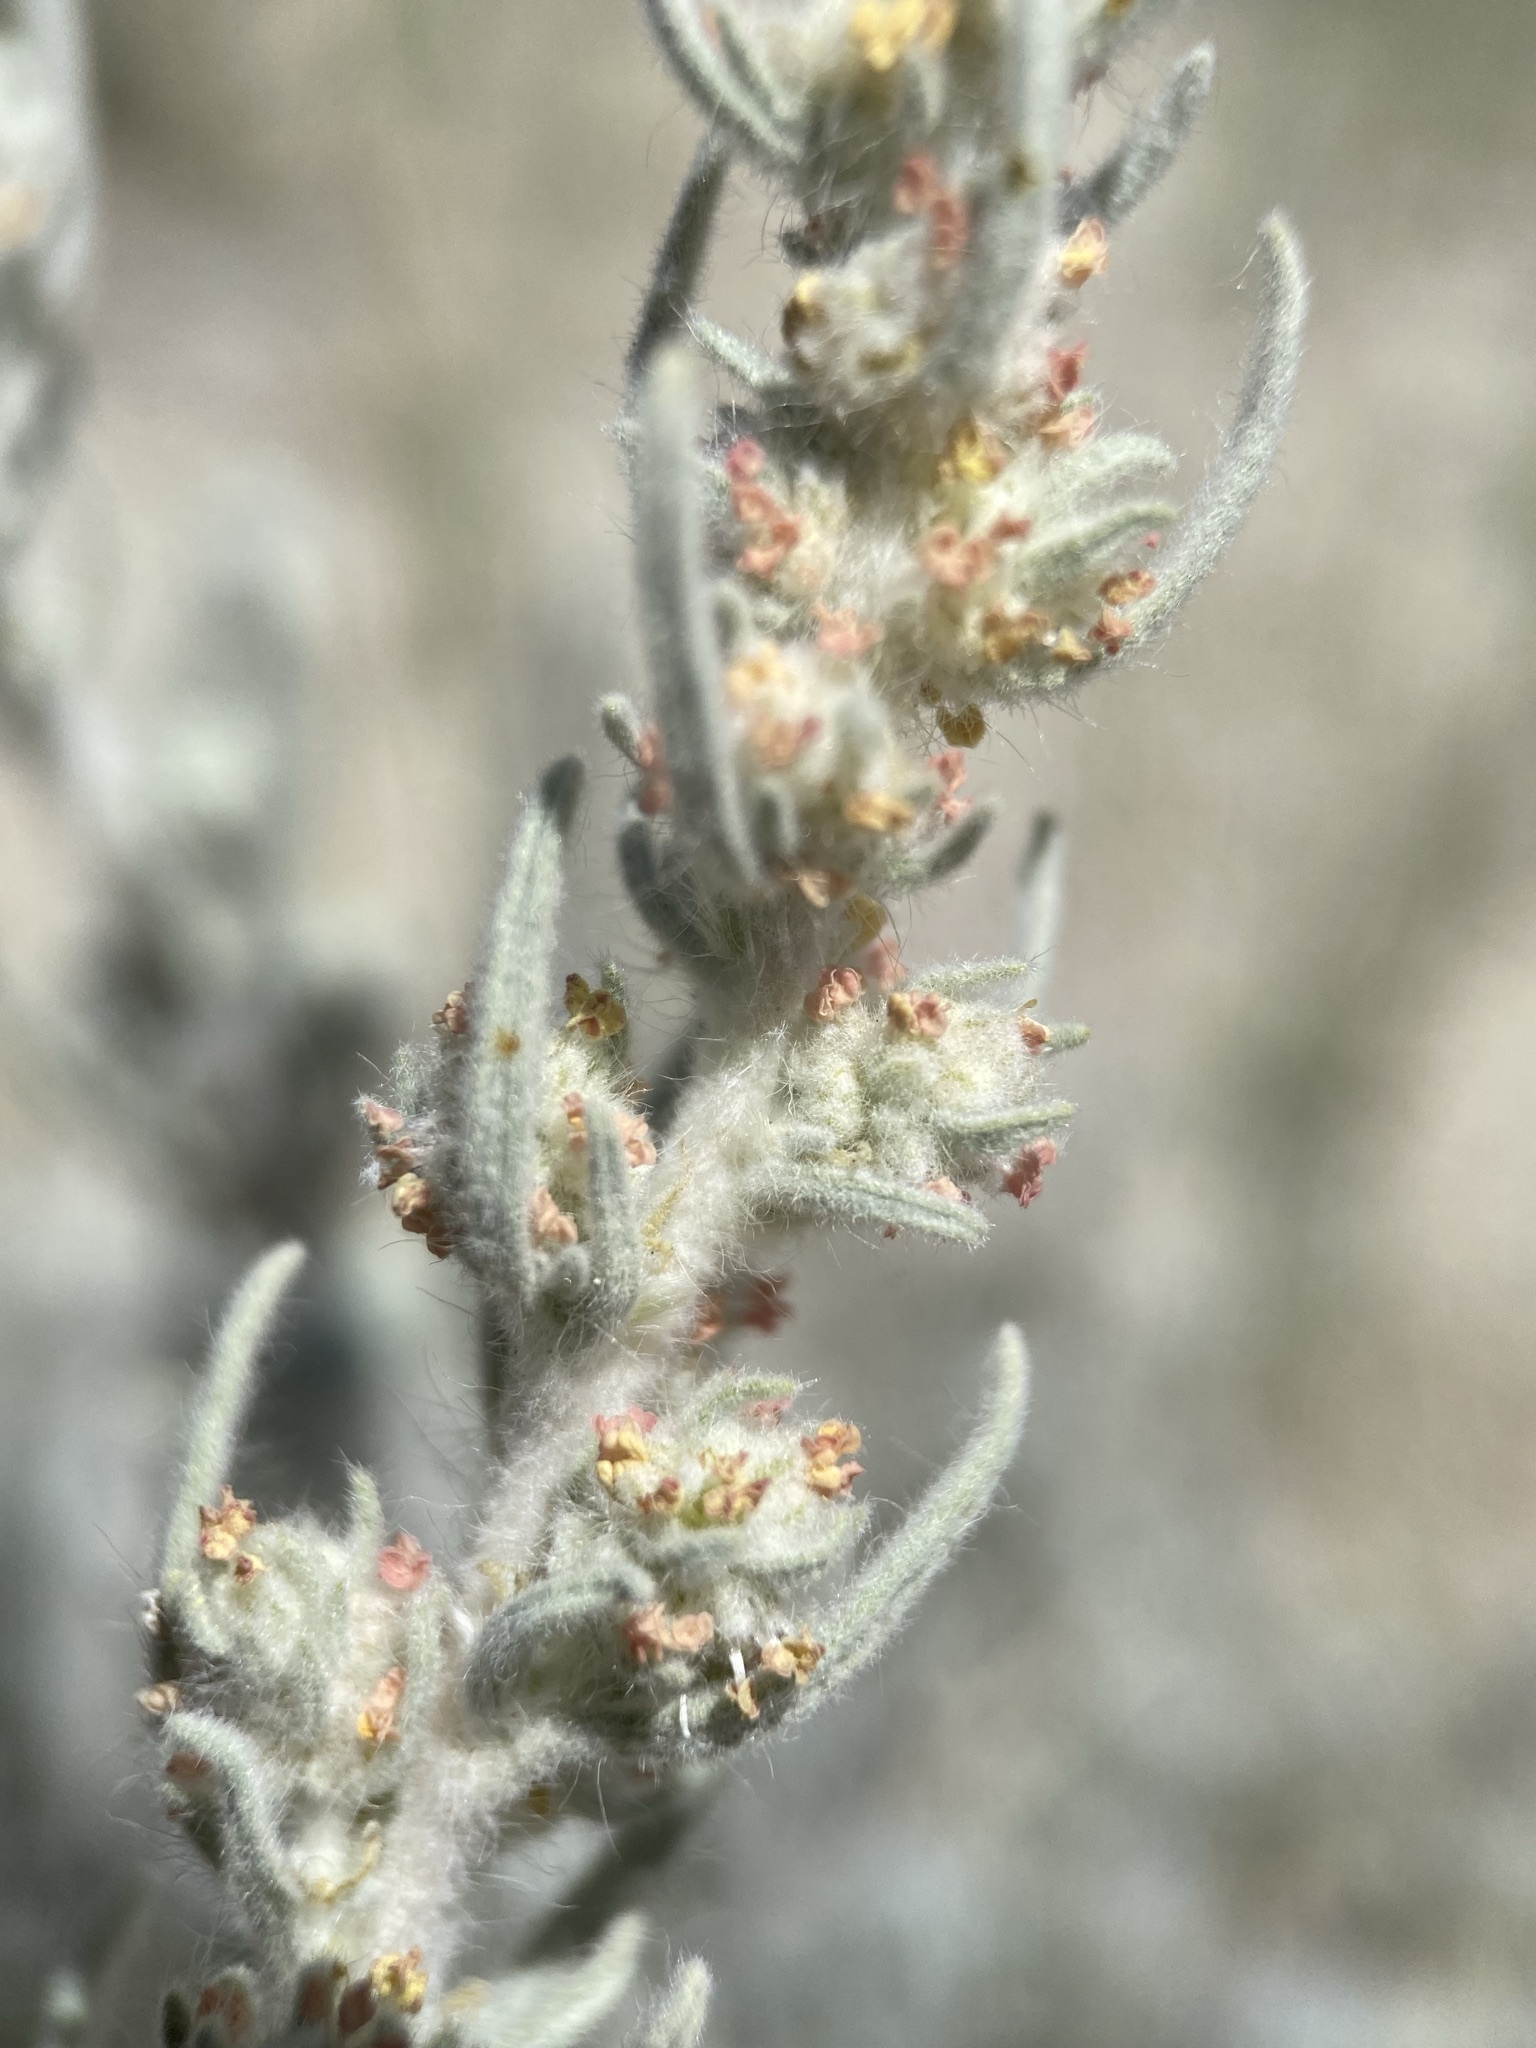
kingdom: Plantae
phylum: Tracheophyta
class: Magnoliopsida
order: Caryophyllales
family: Amaranthaceae
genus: Krascheninnikovia
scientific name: Krascheninnikovia lanata
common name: Winterfat
